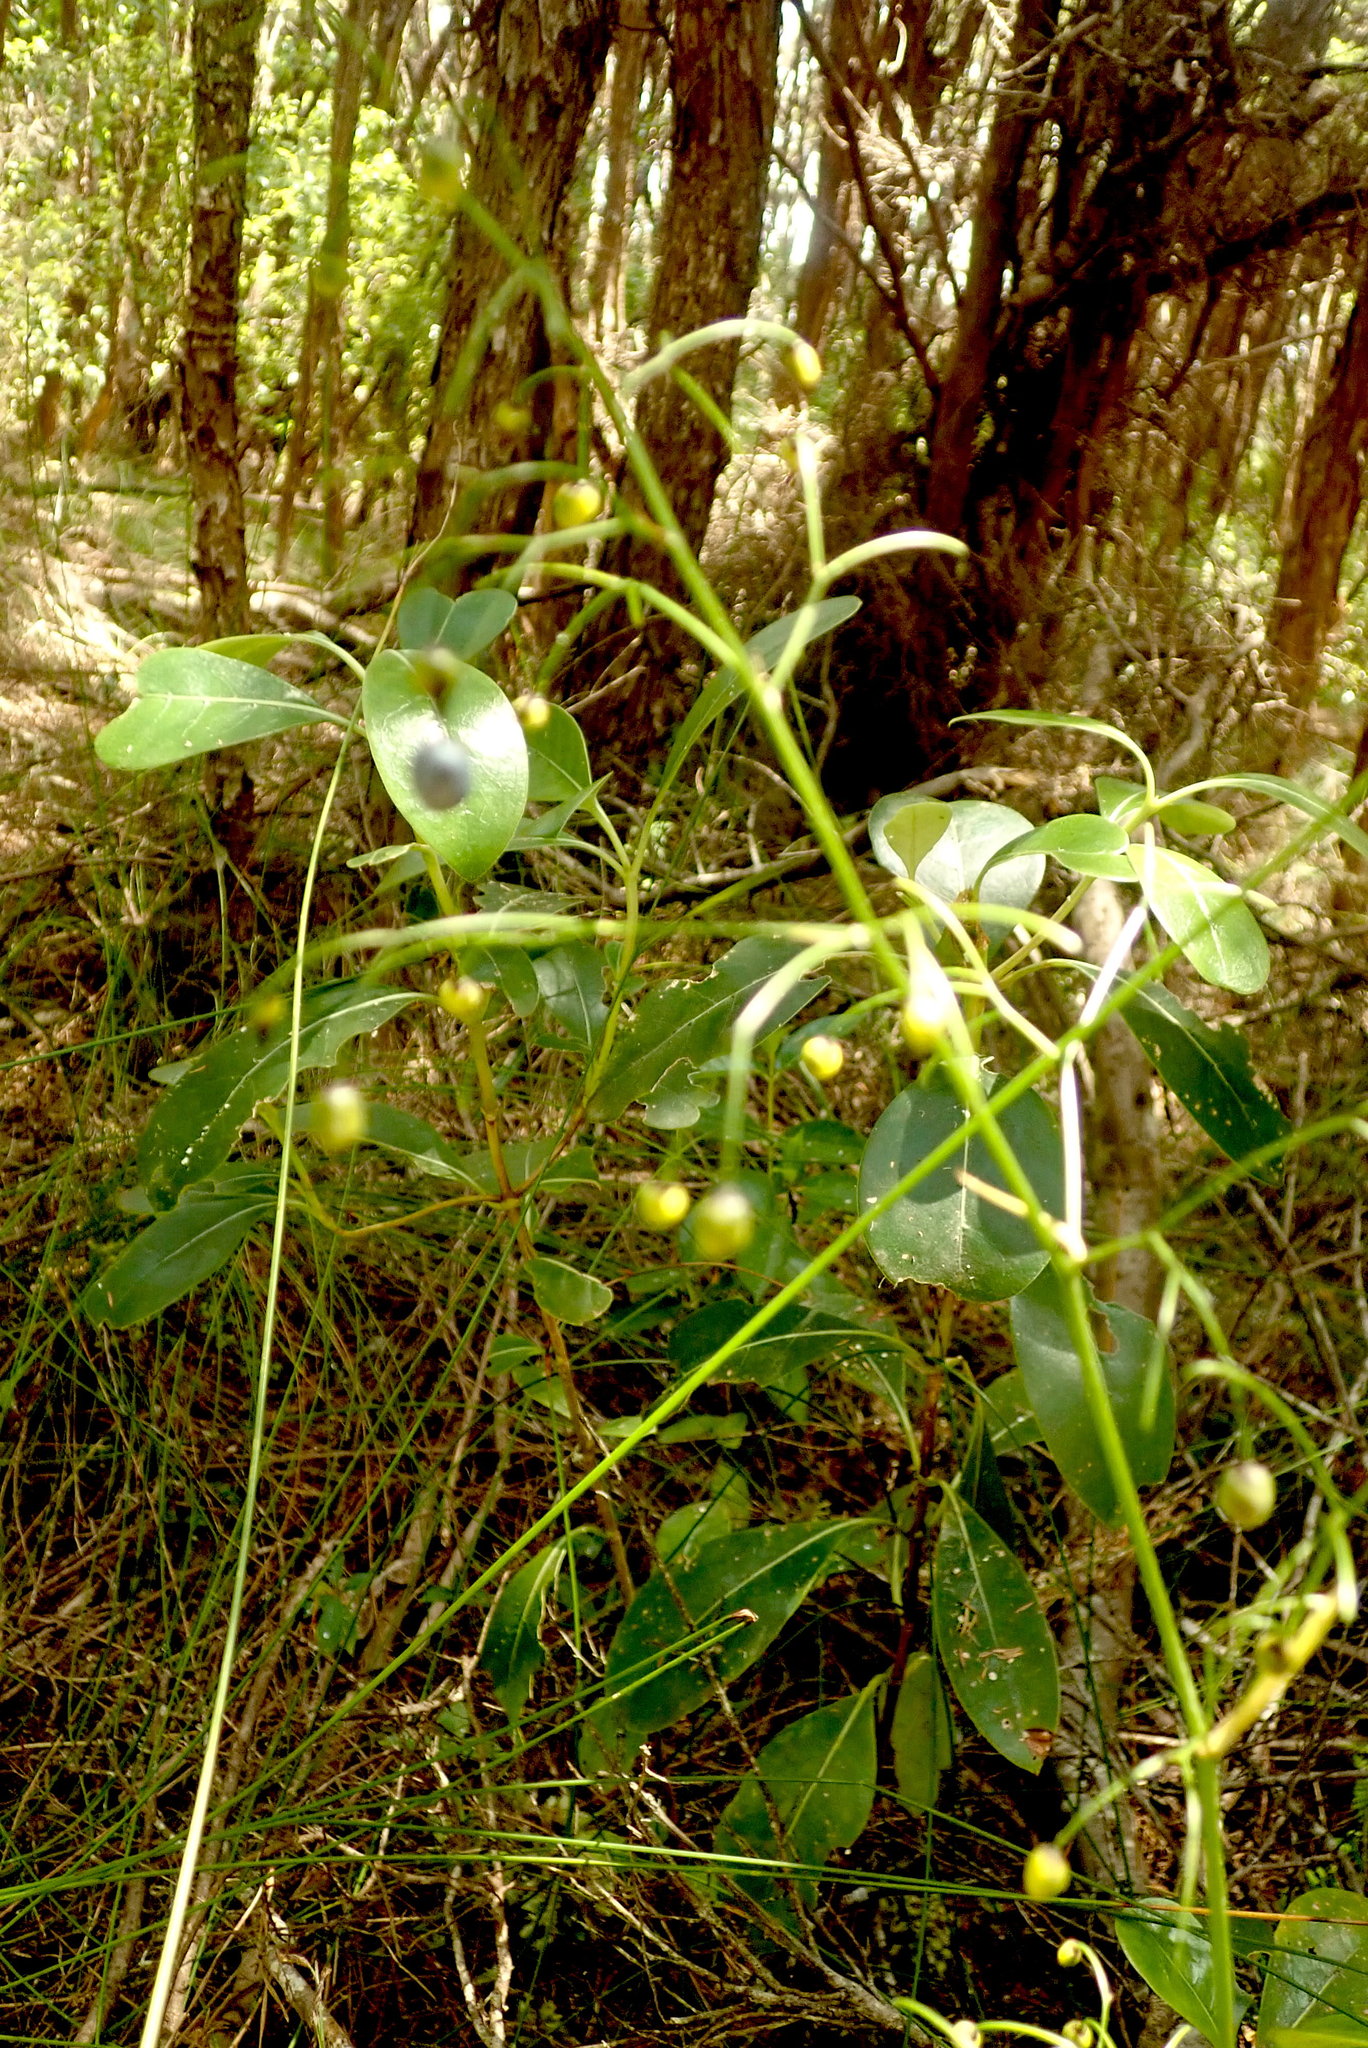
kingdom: Plantae
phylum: Tracheophyta
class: Magnoliopsida
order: Gentianales
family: Rubiaceae
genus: Coprosma
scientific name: Coprosma lucida
